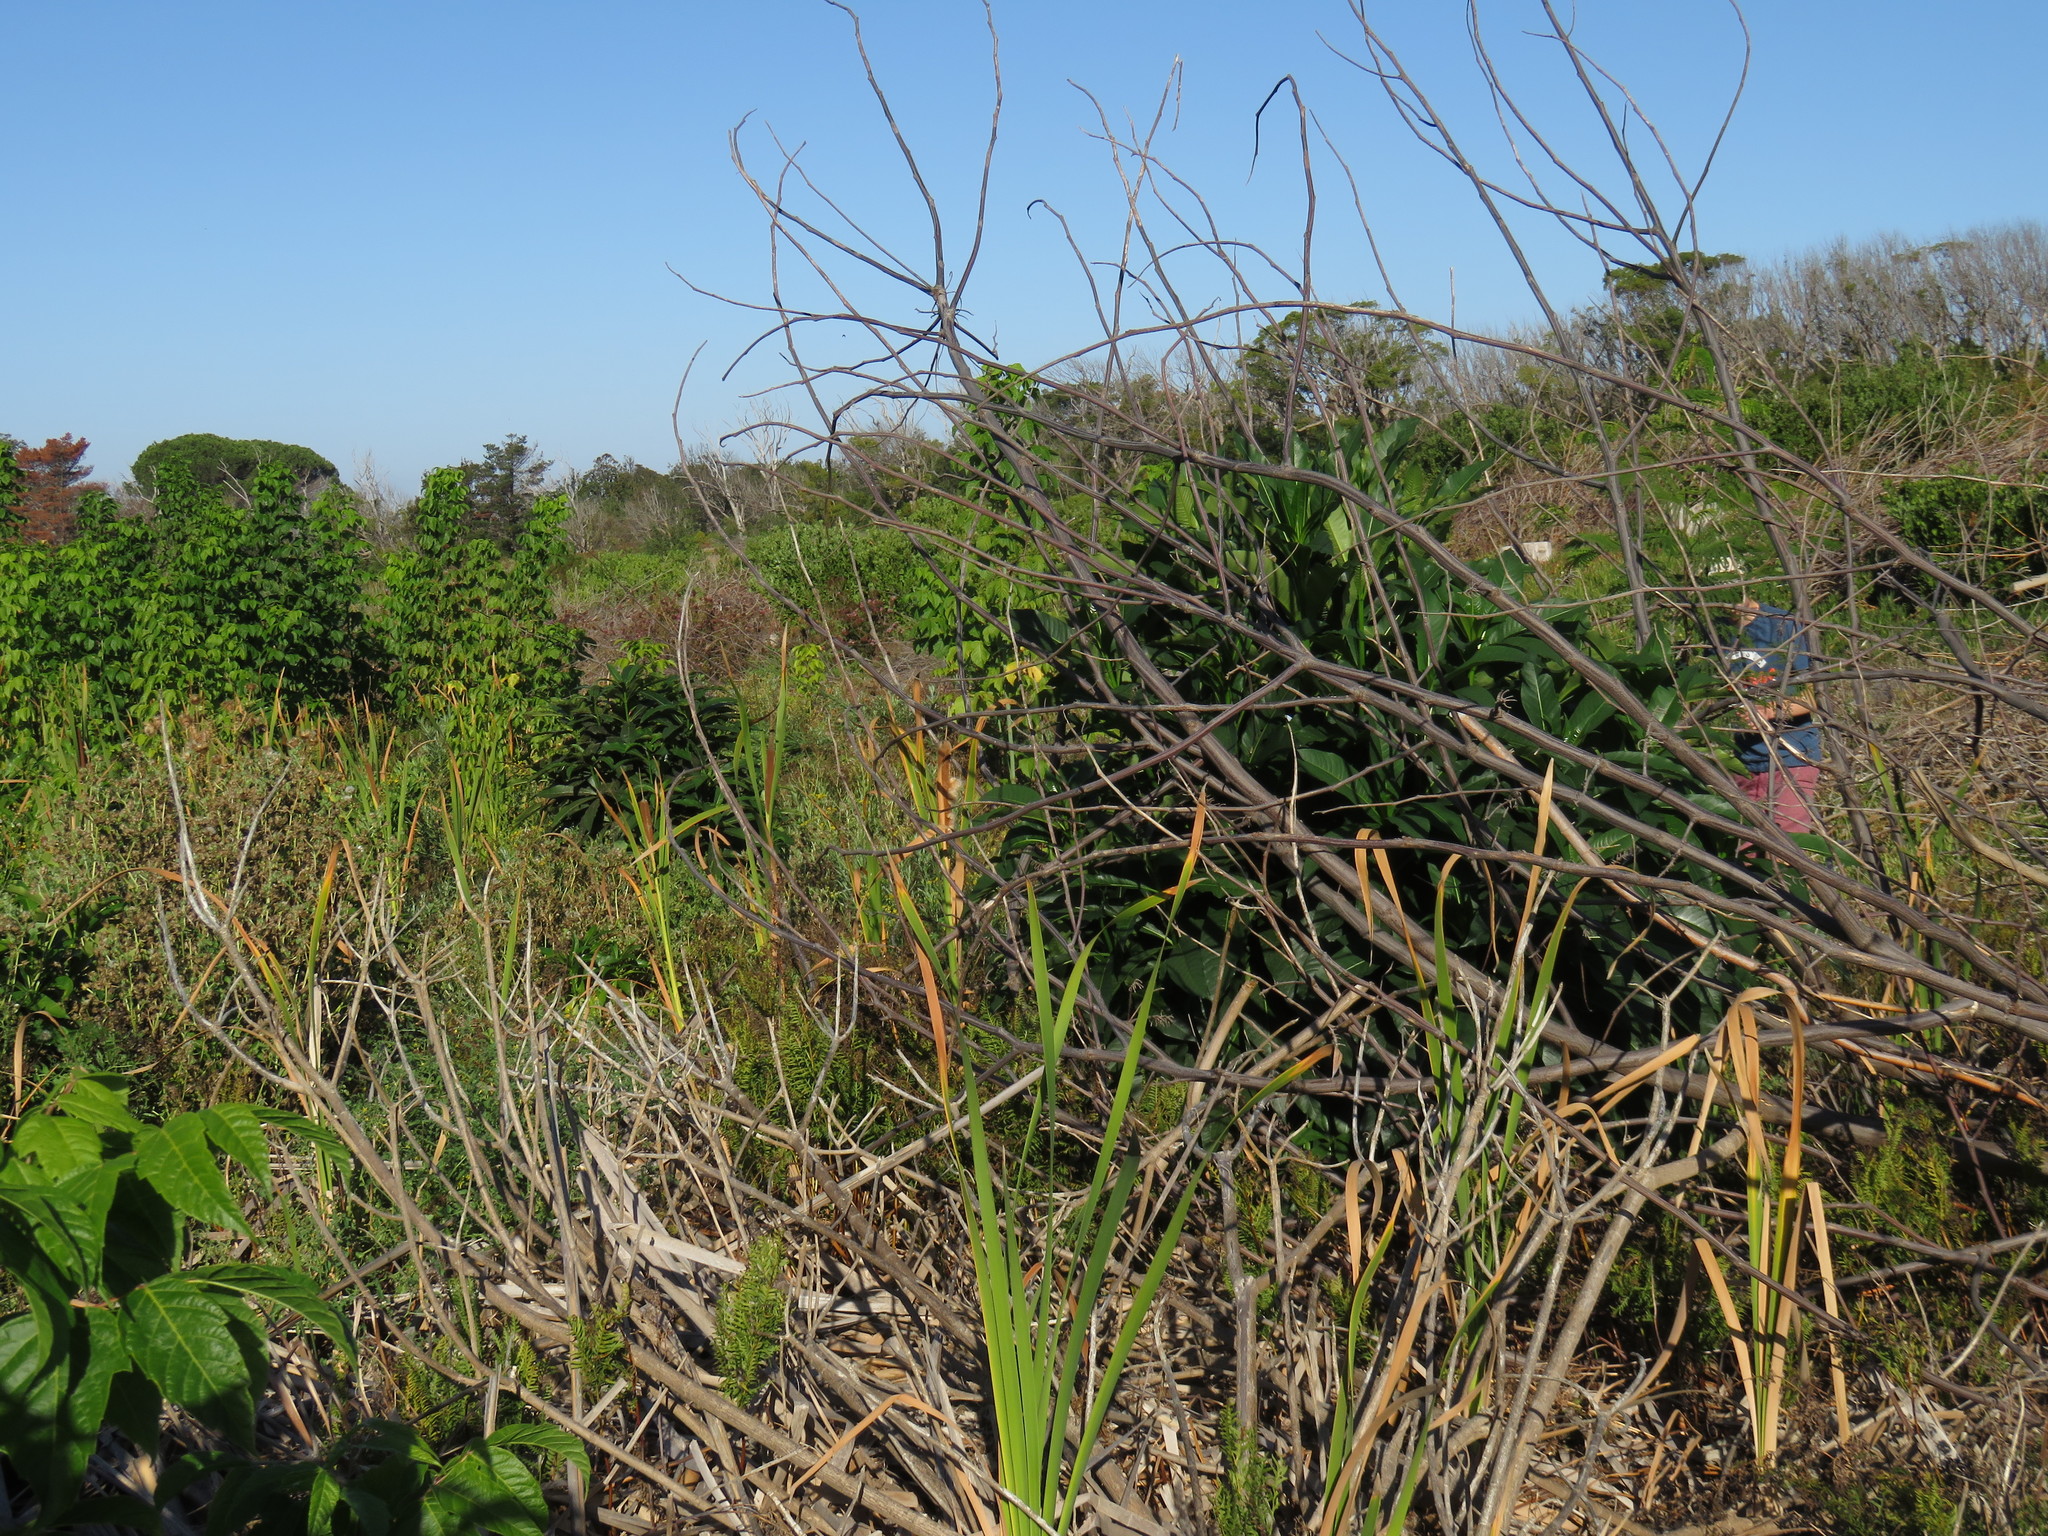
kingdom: Plantae
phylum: Tracheophyta
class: Magnoliopsida
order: Sapindales
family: Sapindaceae
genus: Acer
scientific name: Acer negundo
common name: Ashleaf maple
